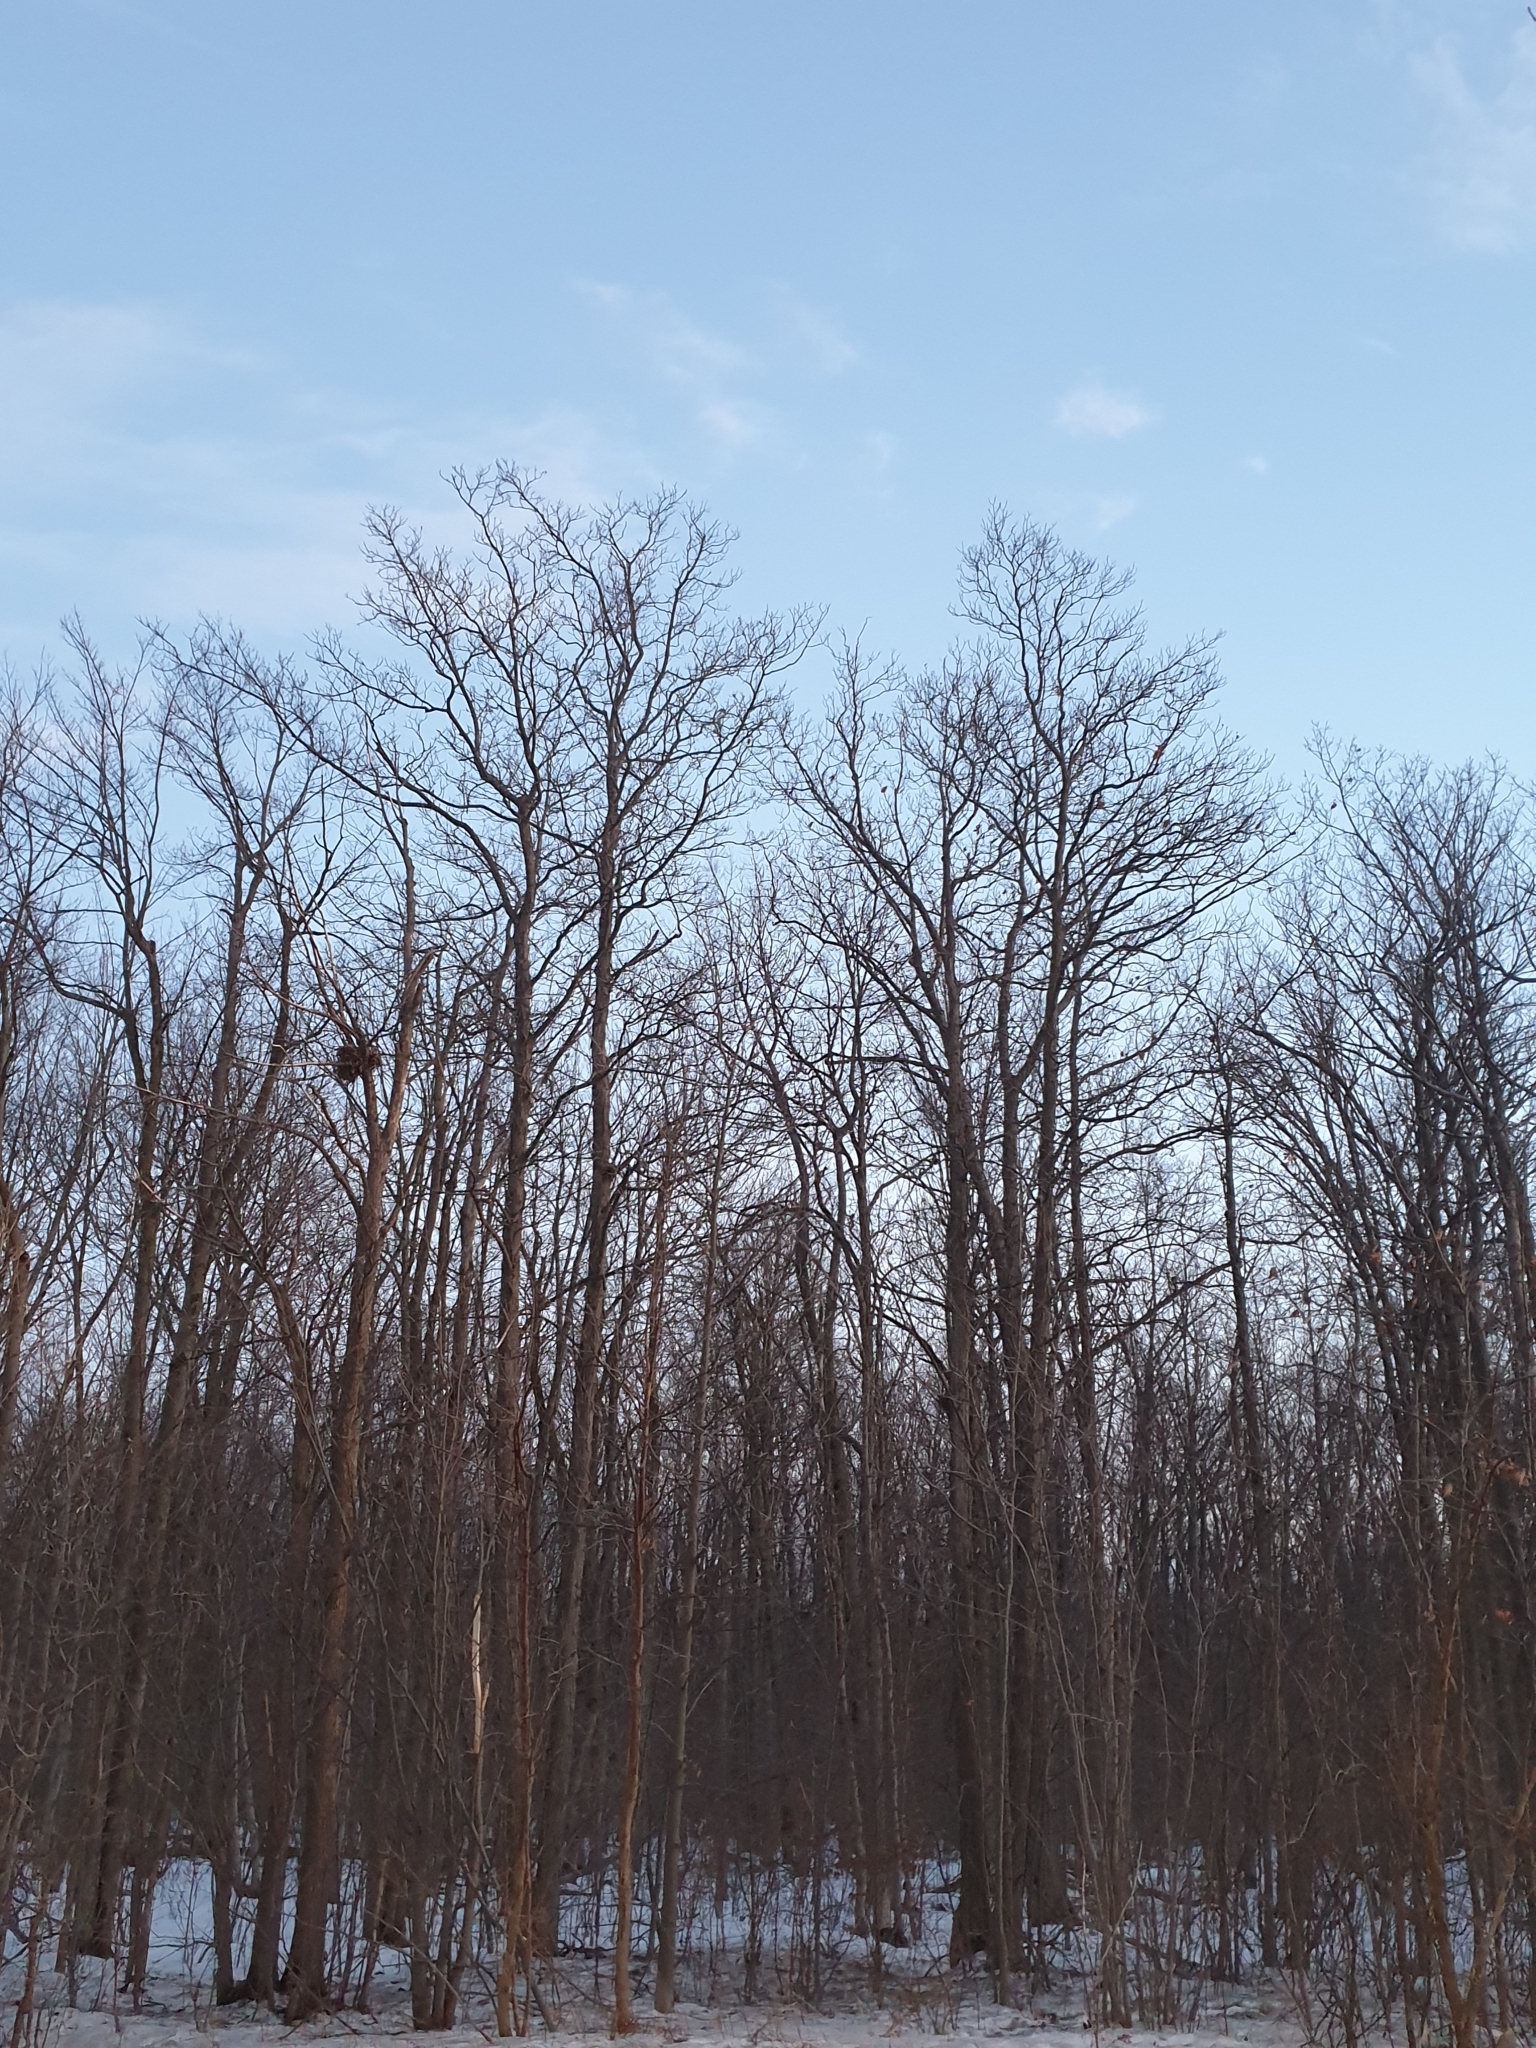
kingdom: Plantae
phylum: Tracheophyta
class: Magnoliopsida
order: Fagales
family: Juglandaceae
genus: Carya
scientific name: Carya ovata
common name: Shagbark hickory
